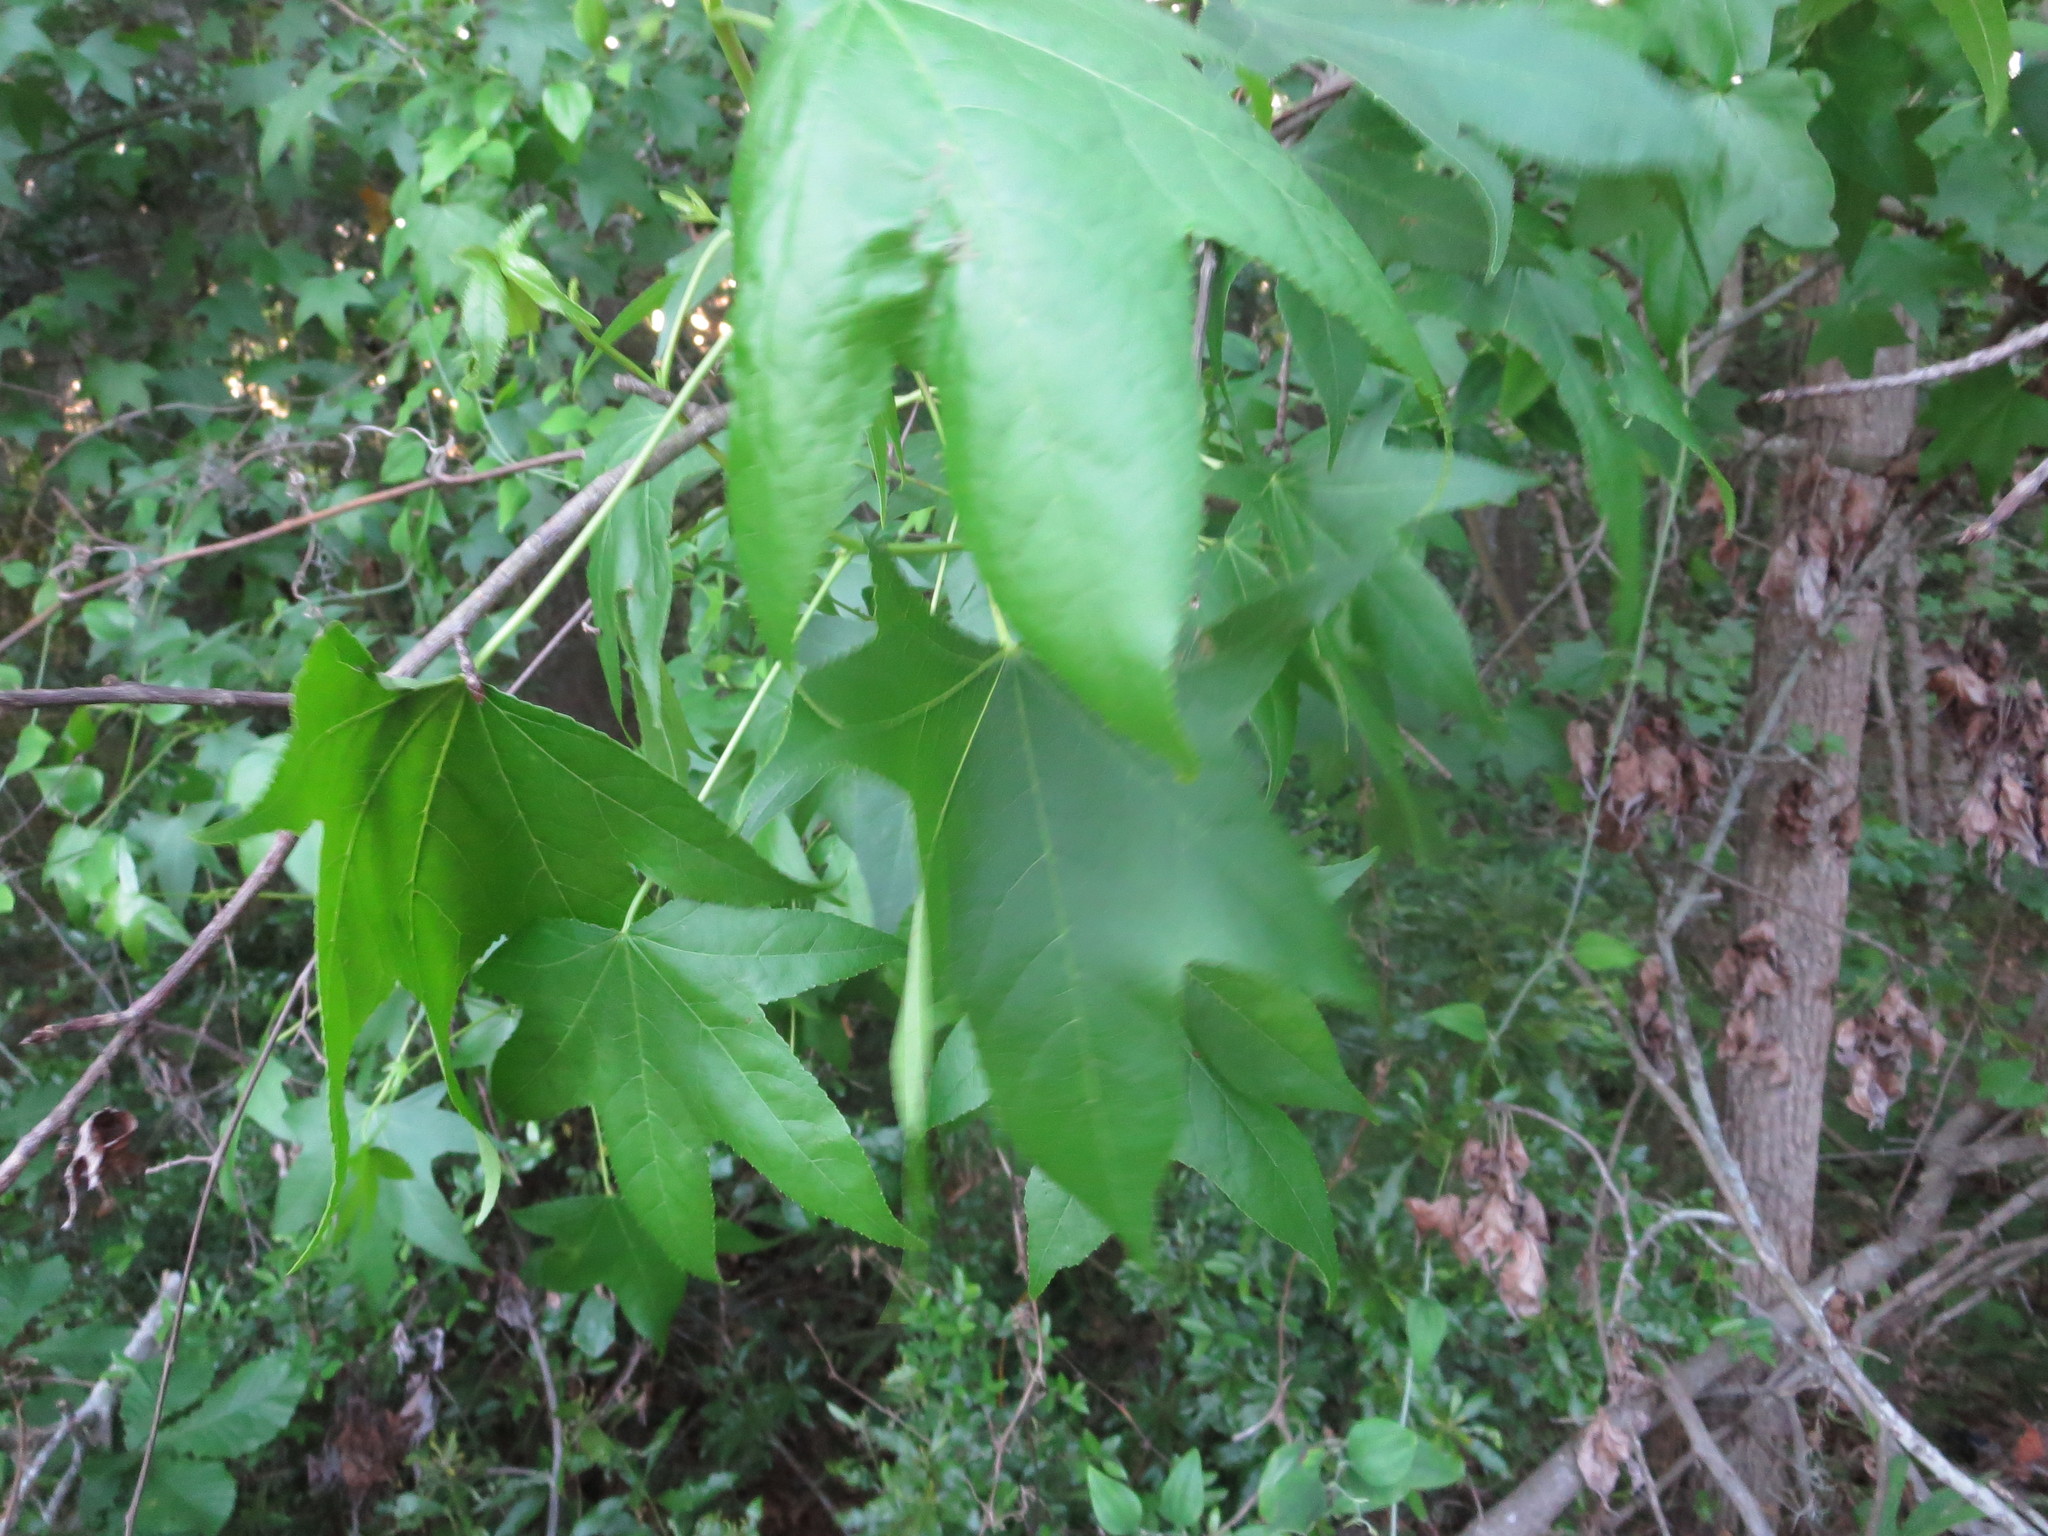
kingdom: Plantae
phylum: Tracheophyta
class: Magnoliopsida
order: Saxifragales
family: Altingiaceae
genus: Liquidambar
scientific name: Liquidambar styraciflua
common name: Sweet gum
